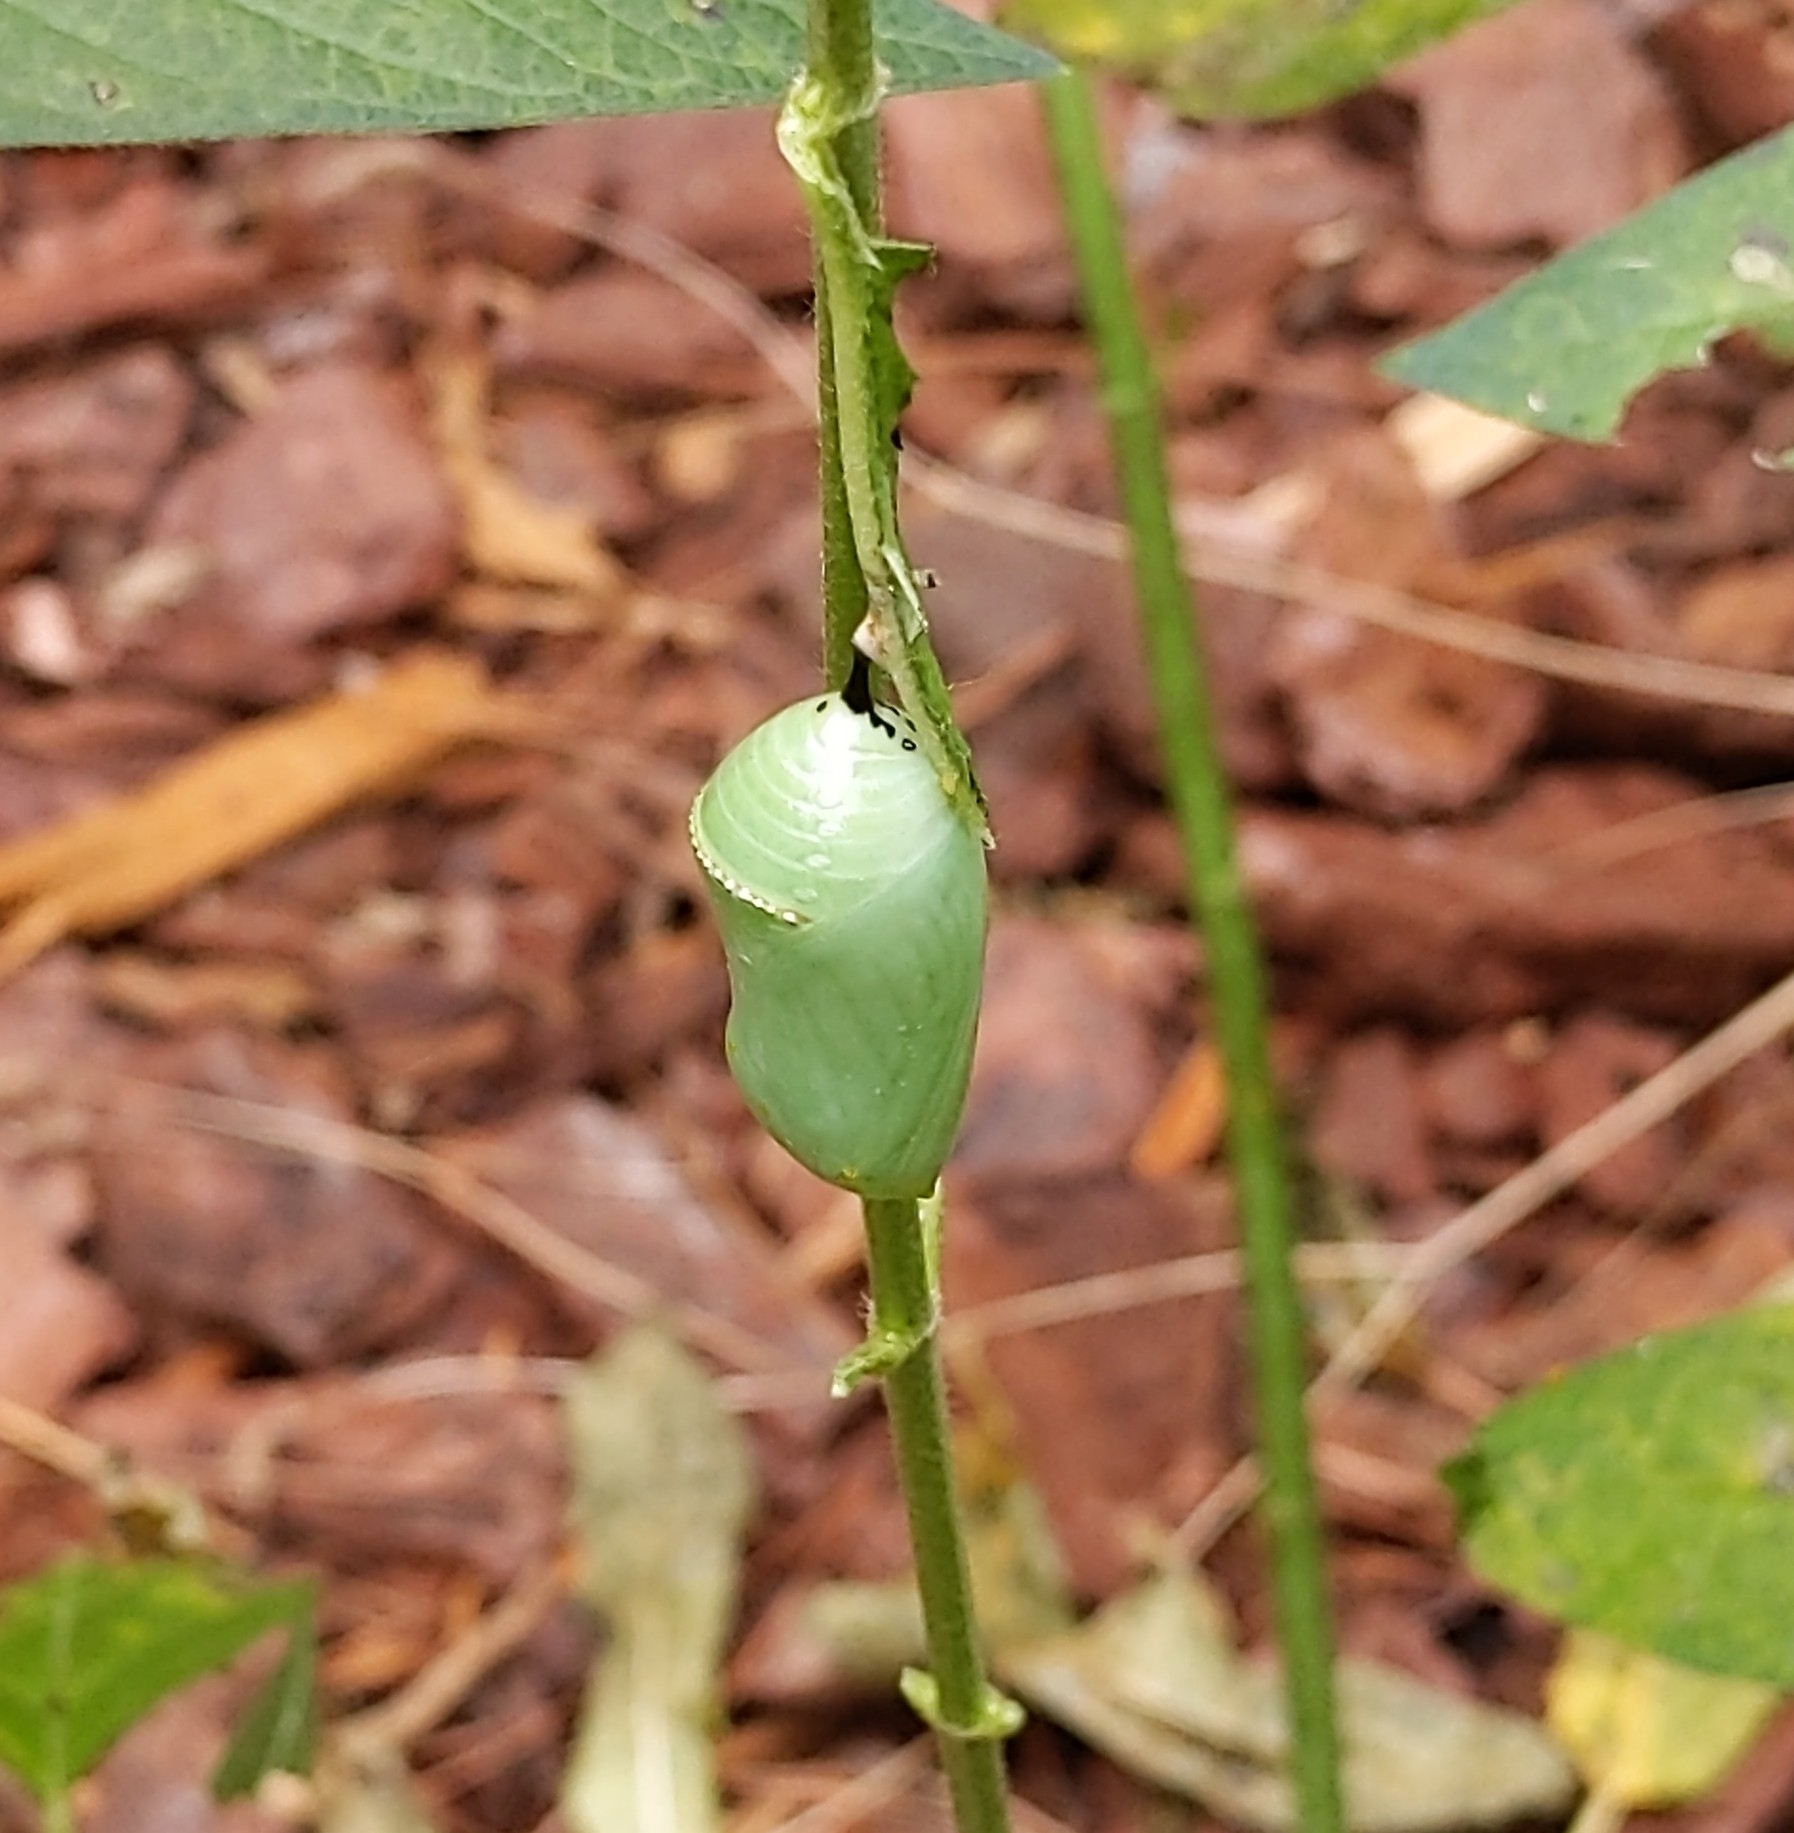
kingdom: Animalia
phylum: Arthropoda
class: Insecta
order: Lepidoptera
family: Nymphalidae
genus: Danaus
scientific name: Danaus plexippus
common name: Monarch
